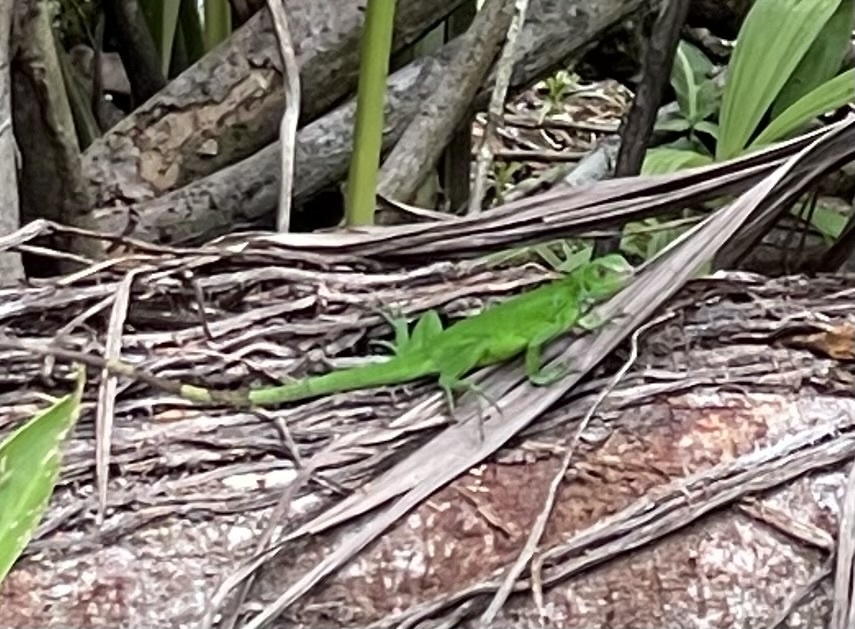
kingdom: Animalia
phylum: Chordata
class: Squamata
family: Iguanidae
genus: Iguana
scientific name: Iguana iguana
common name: Green iguana
